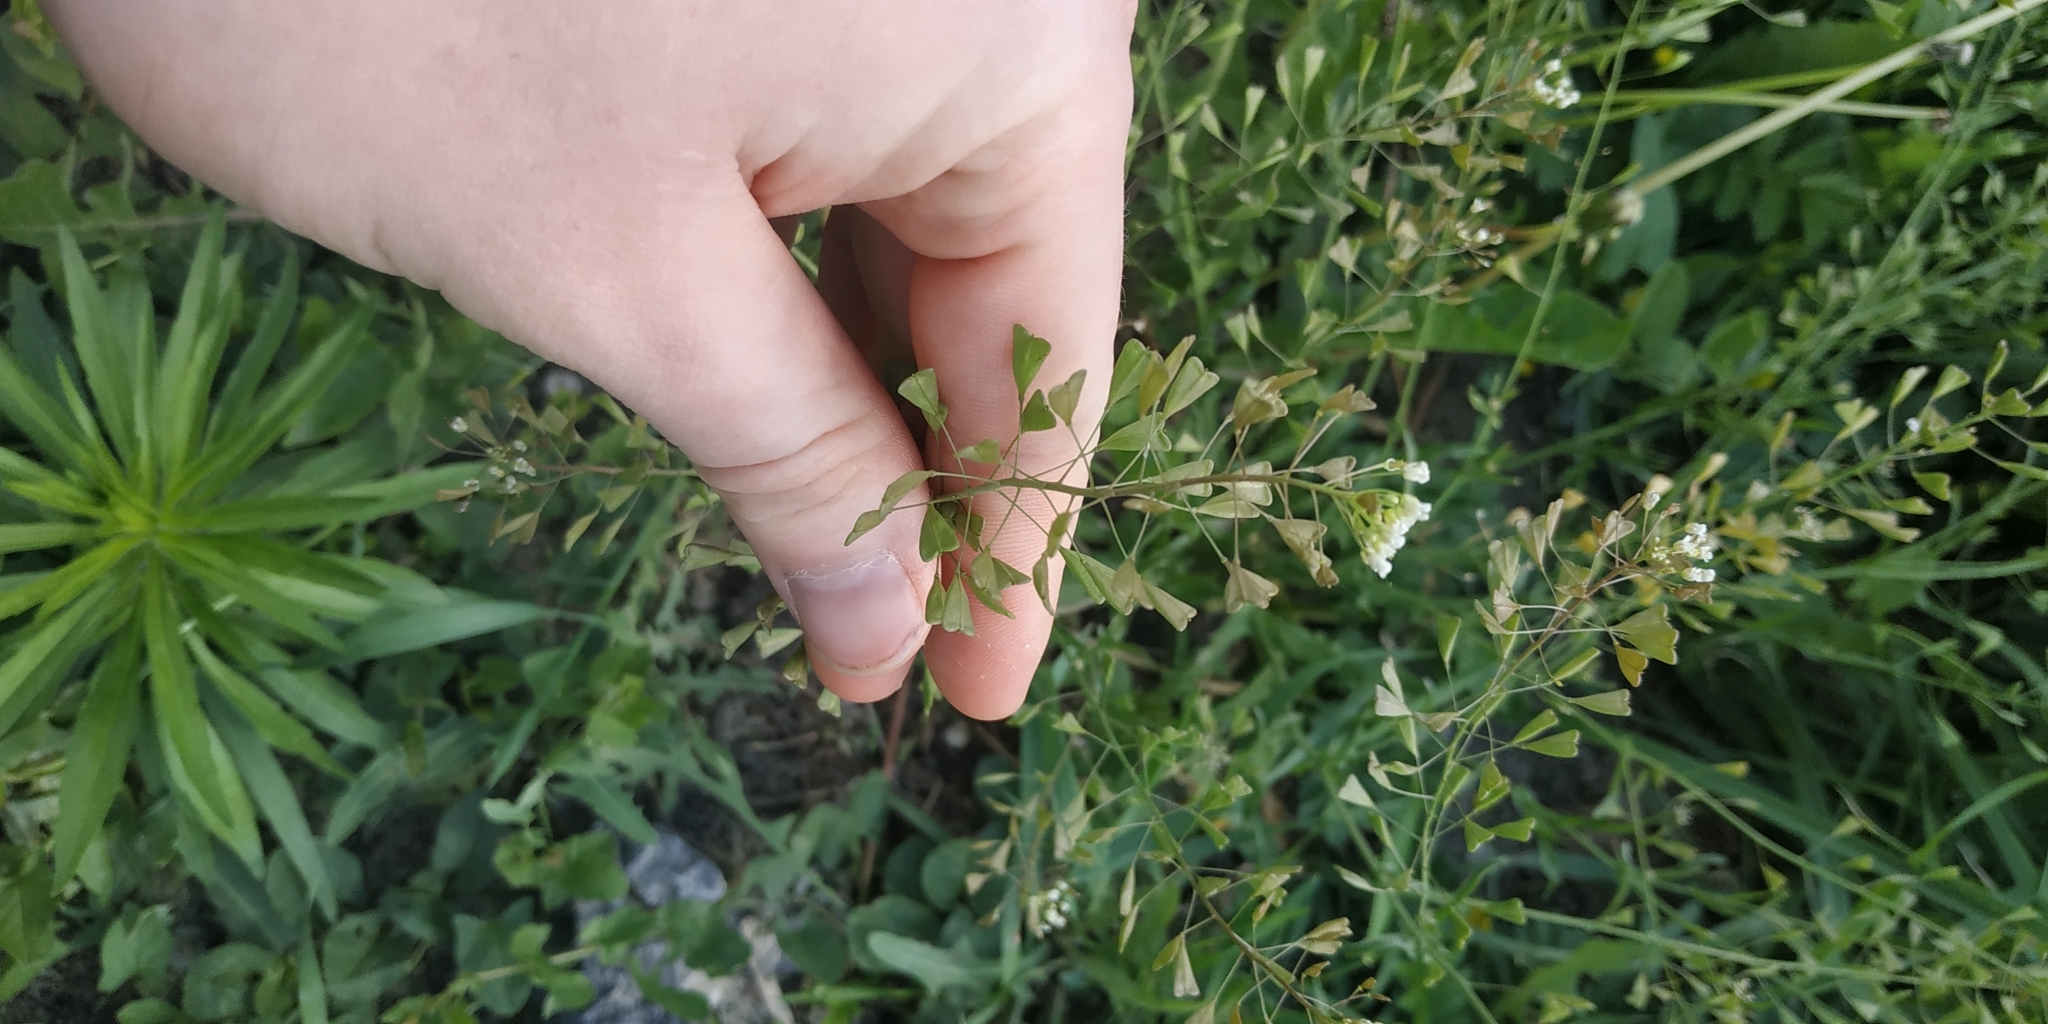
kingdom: Plantae
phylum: Tracheophyta
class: Magnoliopsida
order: Brassicales
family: Brassicaceae
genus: Capsella
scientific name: Capsella bursa-pastoris
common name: Shepherd's purse
